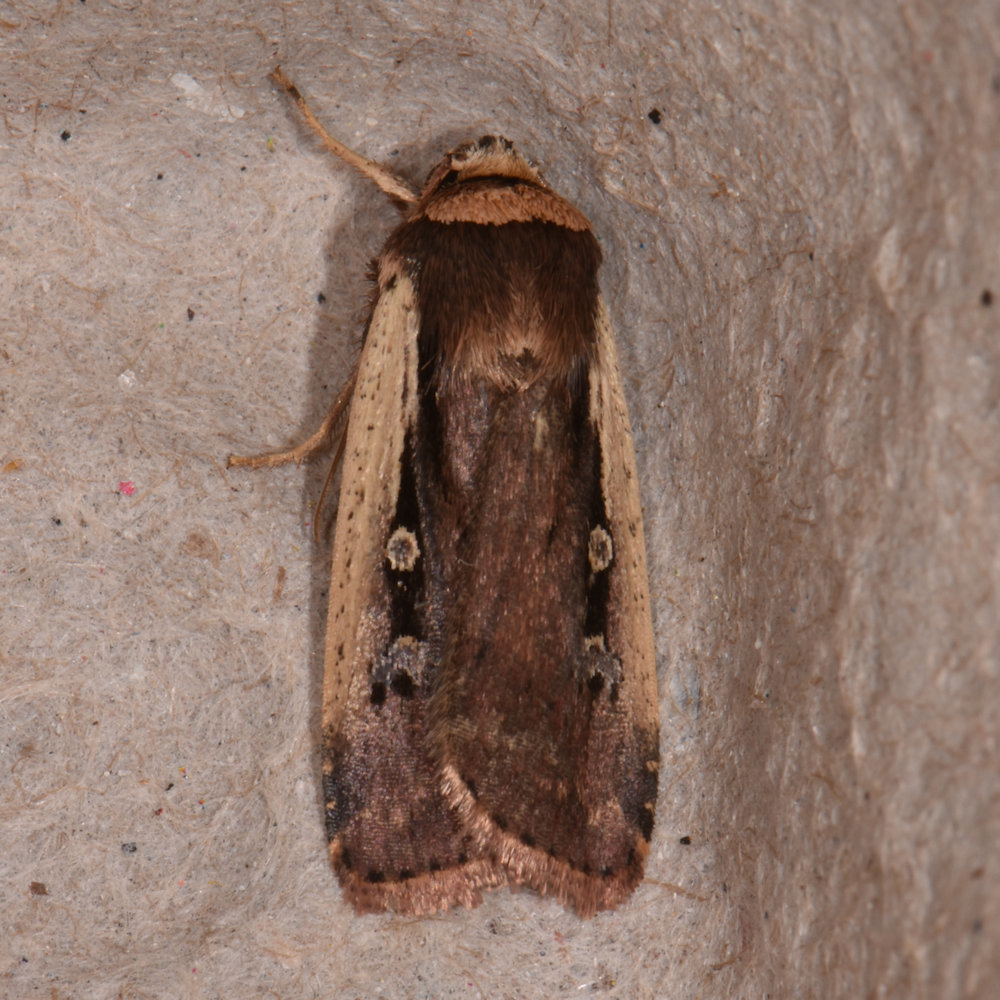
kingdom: Animalia
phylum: Arthropoda
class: Insecta
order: Lepidoptera
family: Noctuidae
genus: Ochropleura
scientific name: Ochropleura implecta
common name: Flame-shouldered dart
